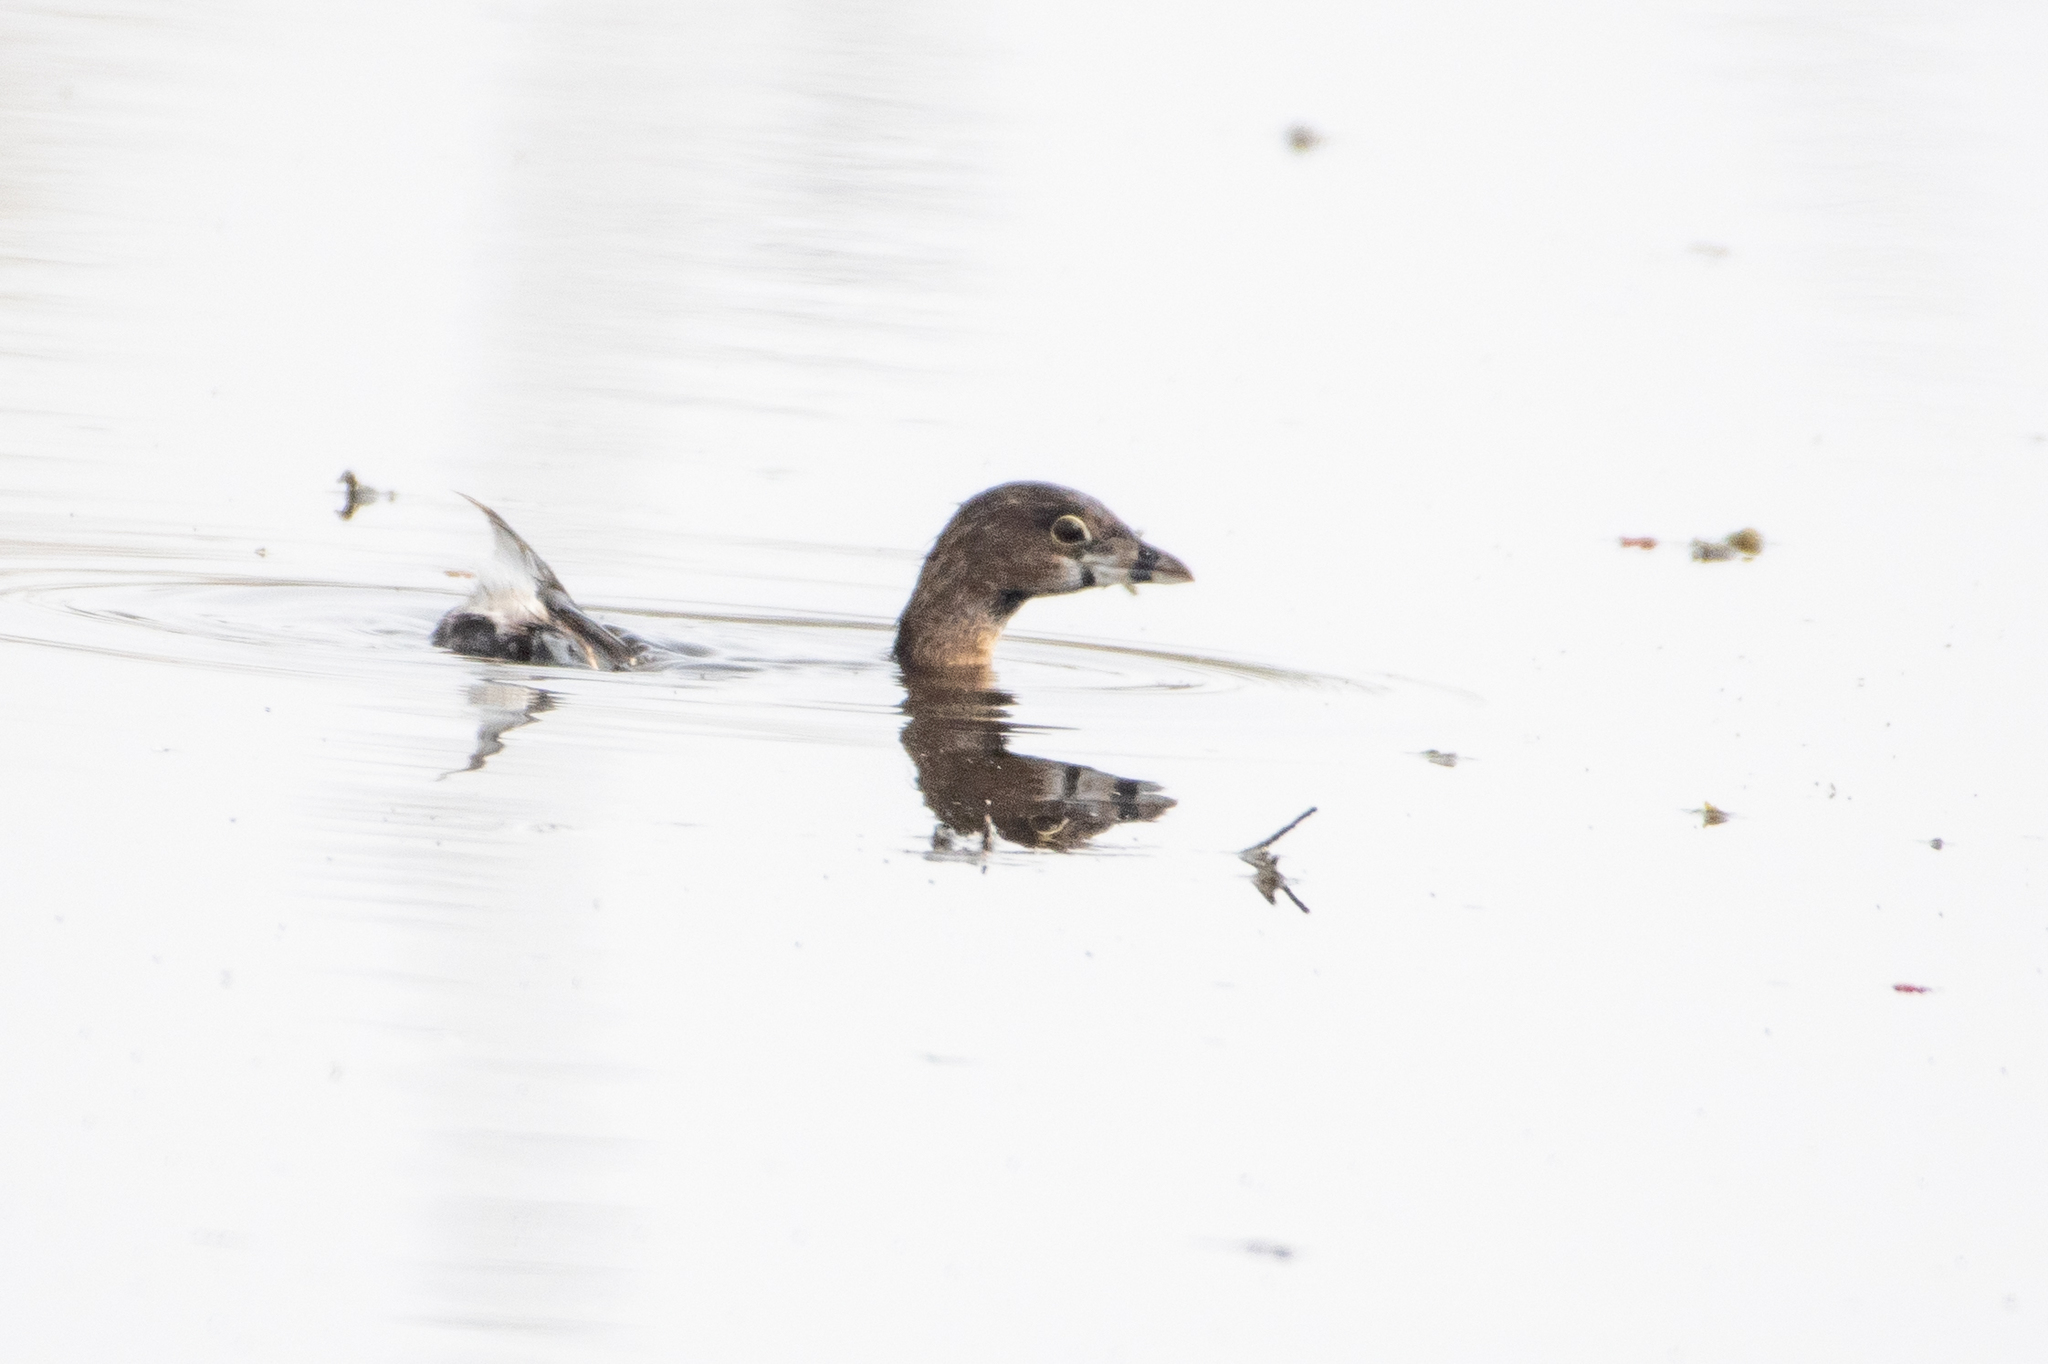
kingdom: Animalia
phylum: Chordata
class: Aves
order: Podicipediformes
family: Podicipedidae
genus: Podilymbus
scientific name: Podilymbus podiceps
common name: Pied-billed grebe
